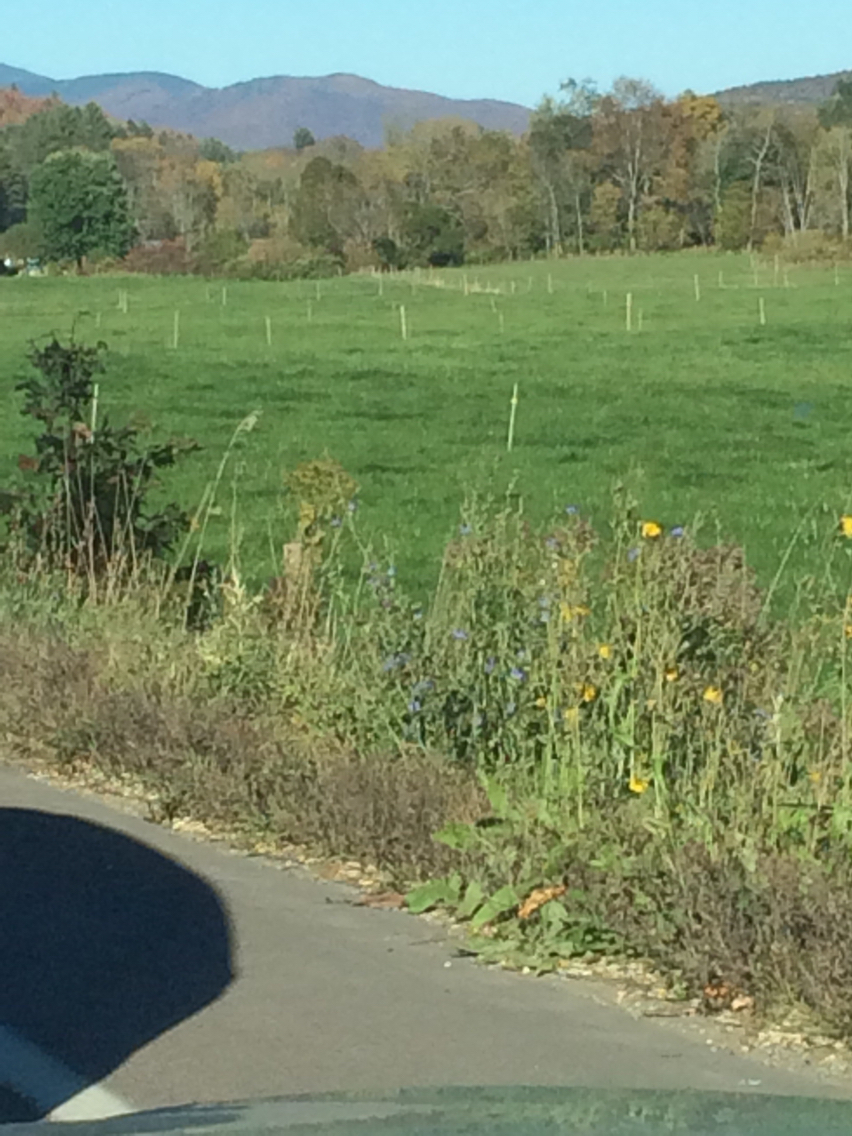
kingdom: Plantae
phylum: Tracheophyta
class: Magnoliopsida
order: Asterales
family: Asteraceae
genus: Cichorium
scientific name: Cichorium intybus
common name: Chicory
